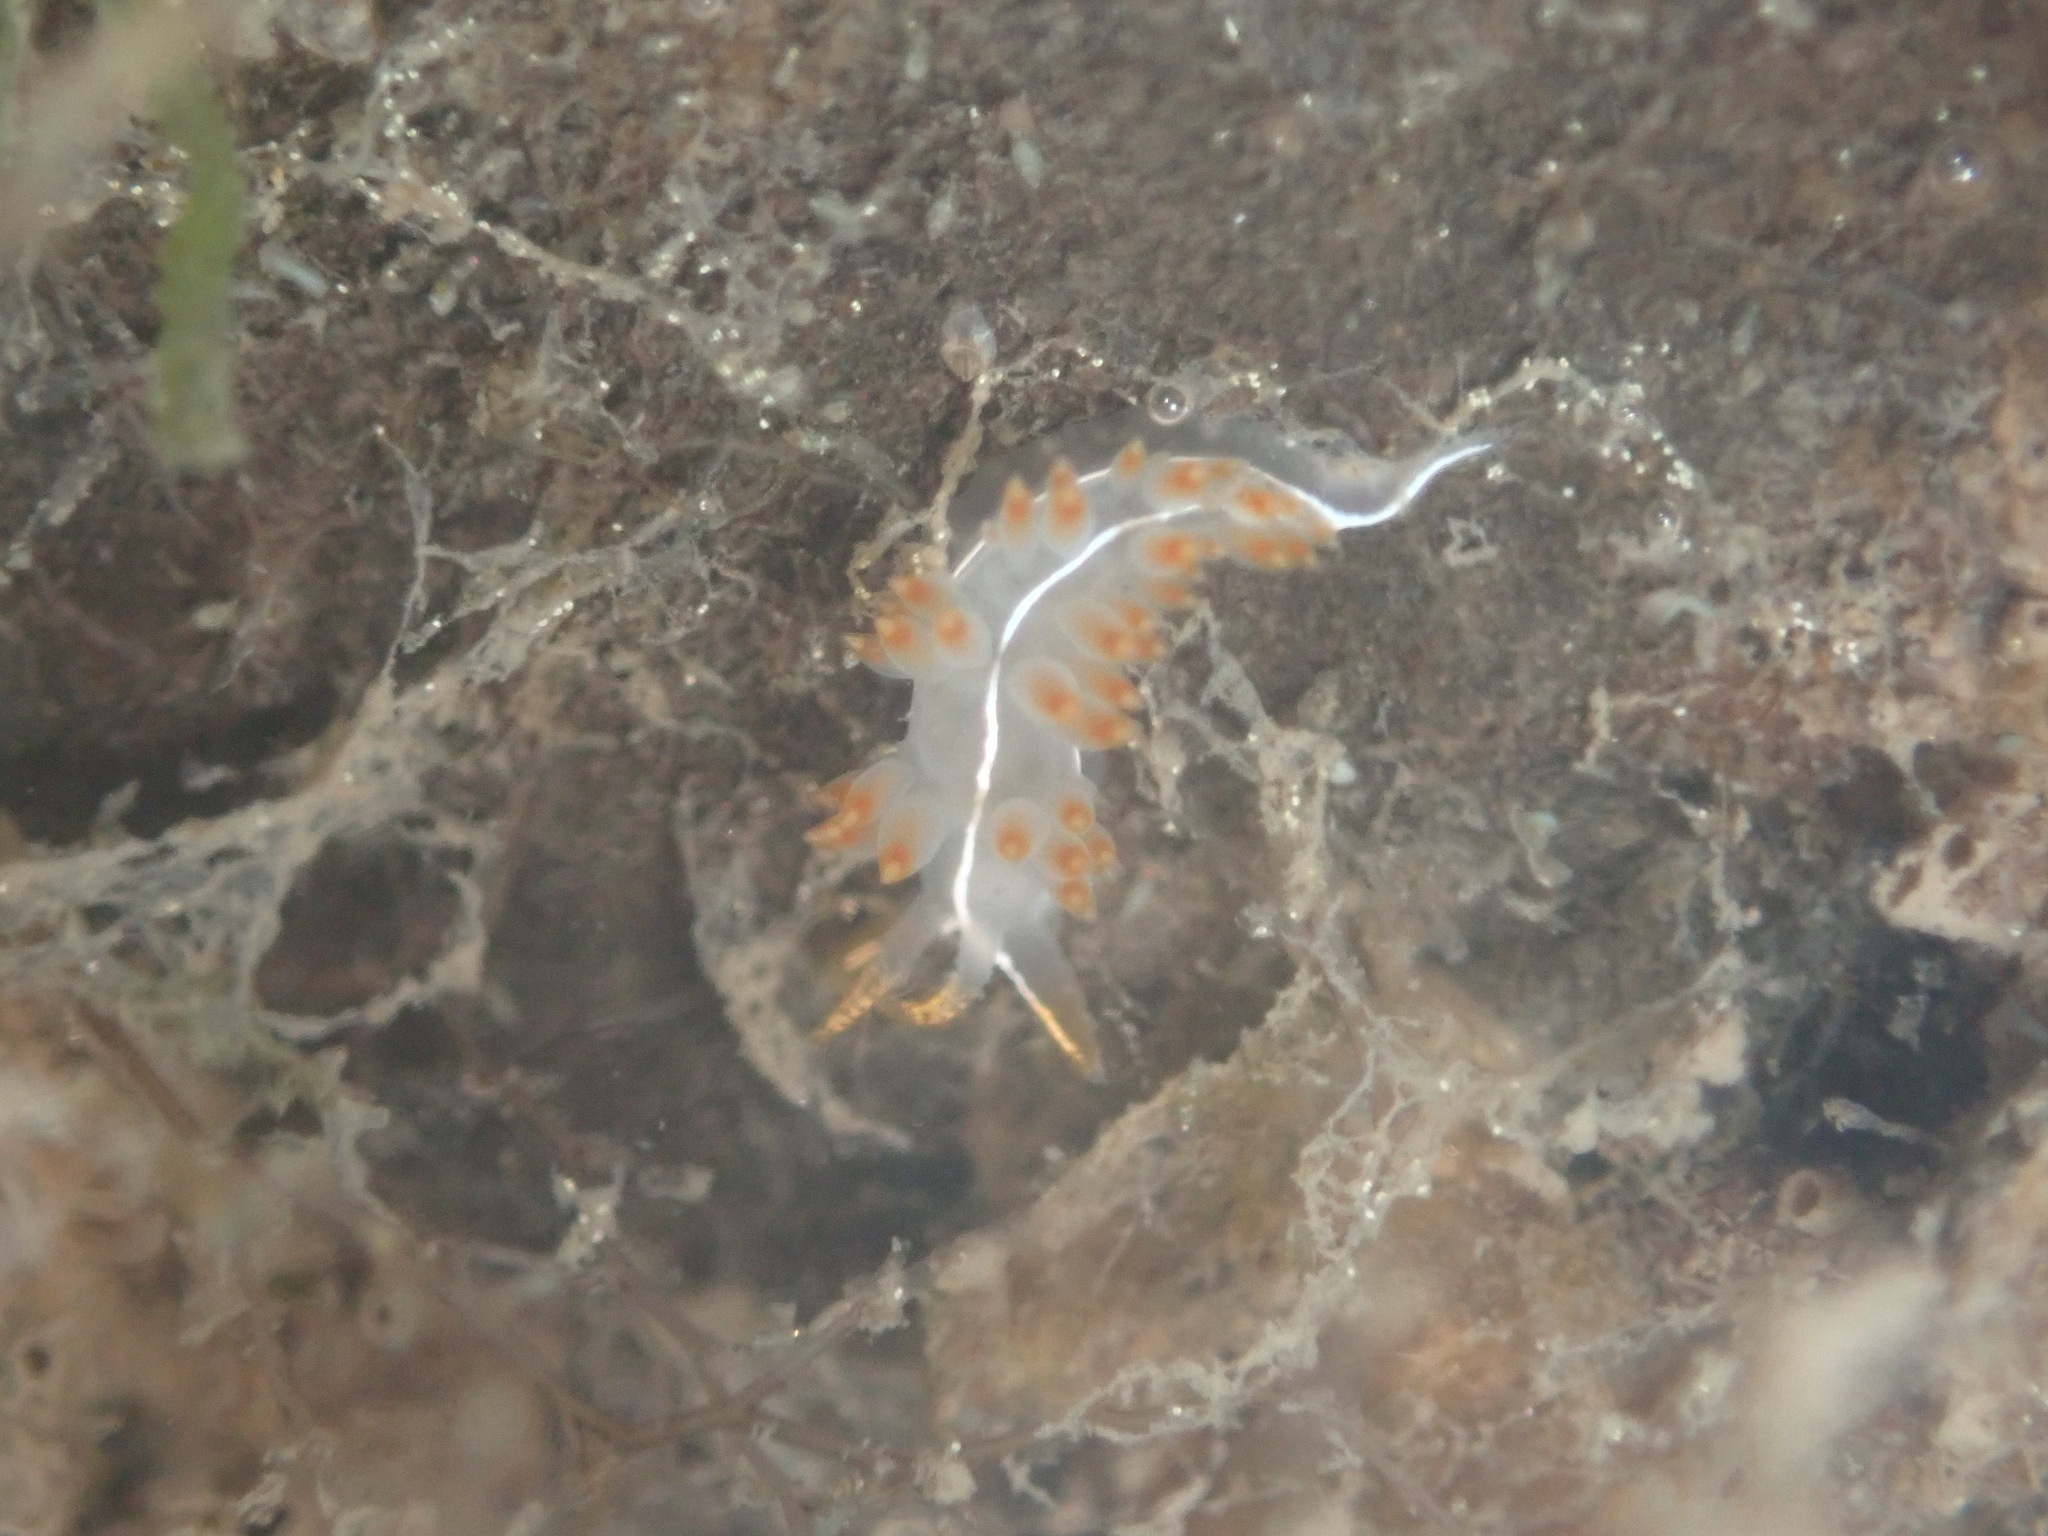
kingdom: Animalia
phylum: Mollusca
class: Gastropoda
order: Nudibranchia
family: Coryphellidae
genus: Coryphella
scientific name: Coryphella trilineata
